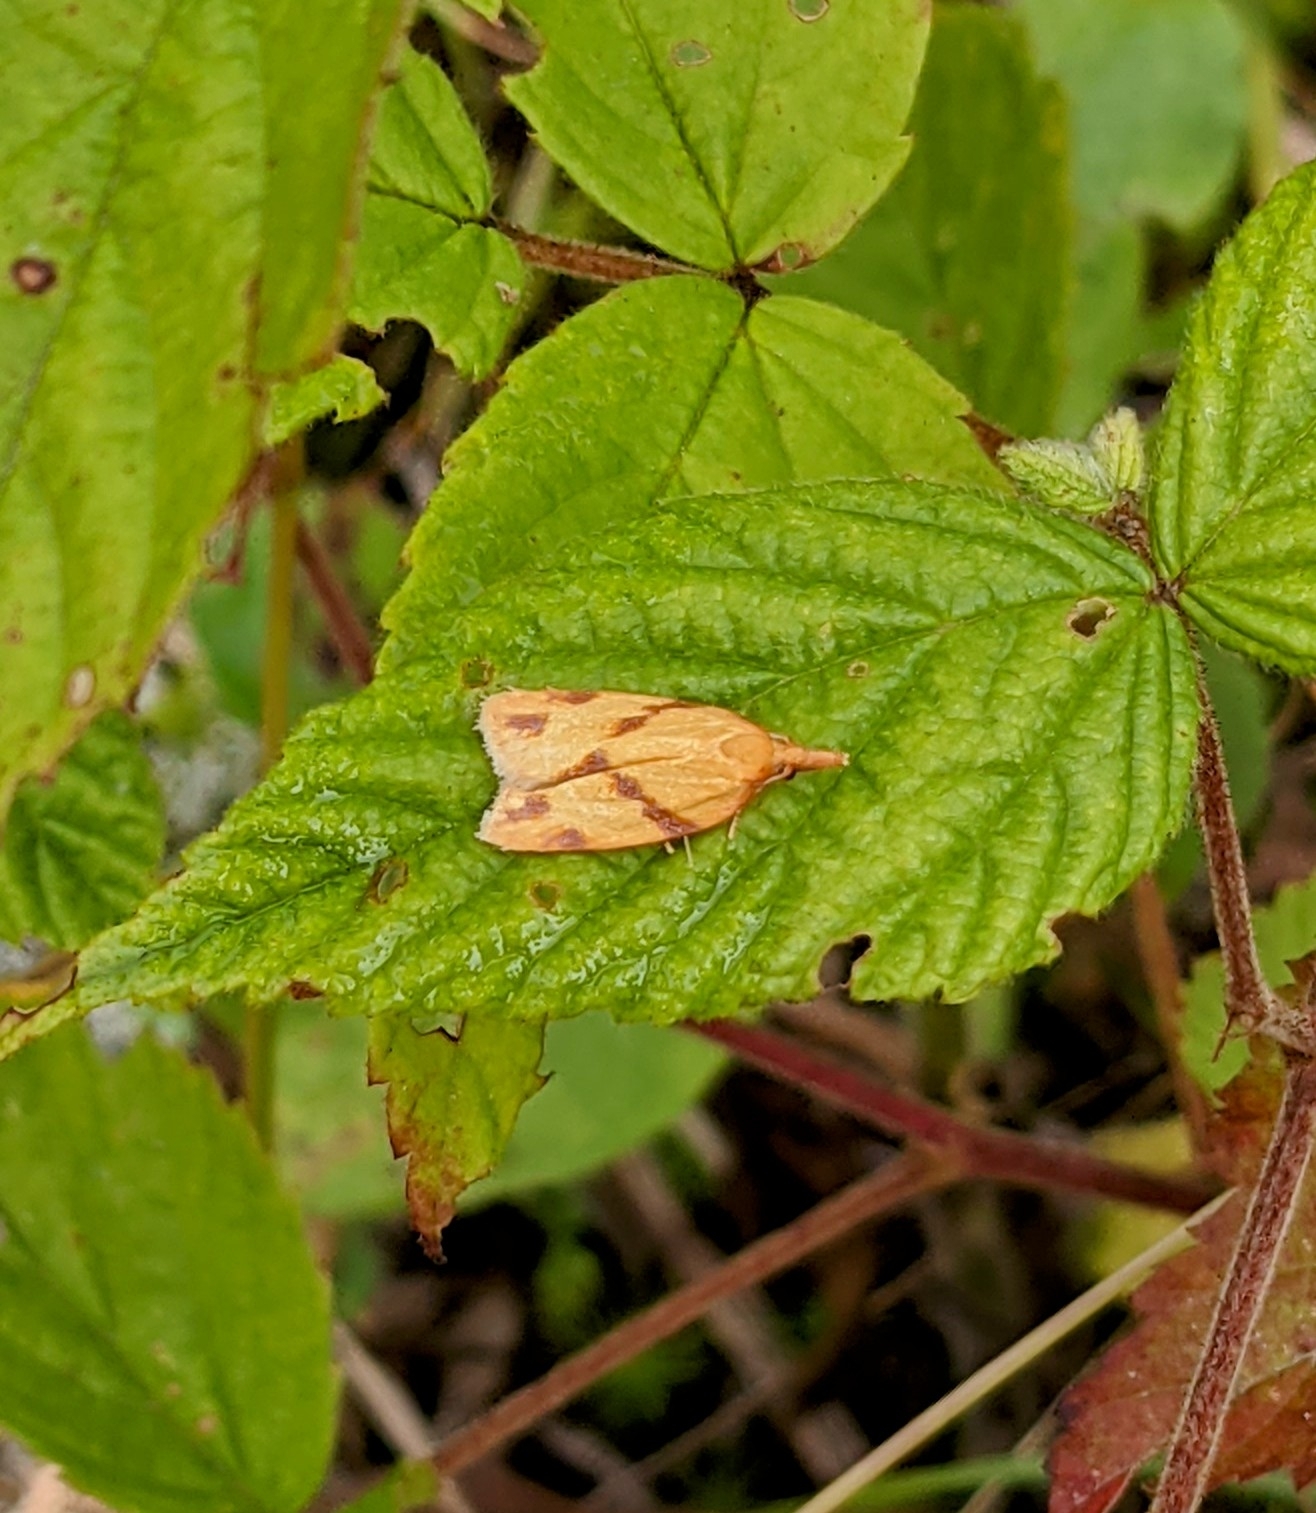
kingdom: Animalia
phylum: Arthropoda
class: Insecta
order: Lepidoptera
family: Tortricidae
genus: Sparganothis
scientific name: Sparganothis unifasciana
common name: One-lined sparganothis moth
